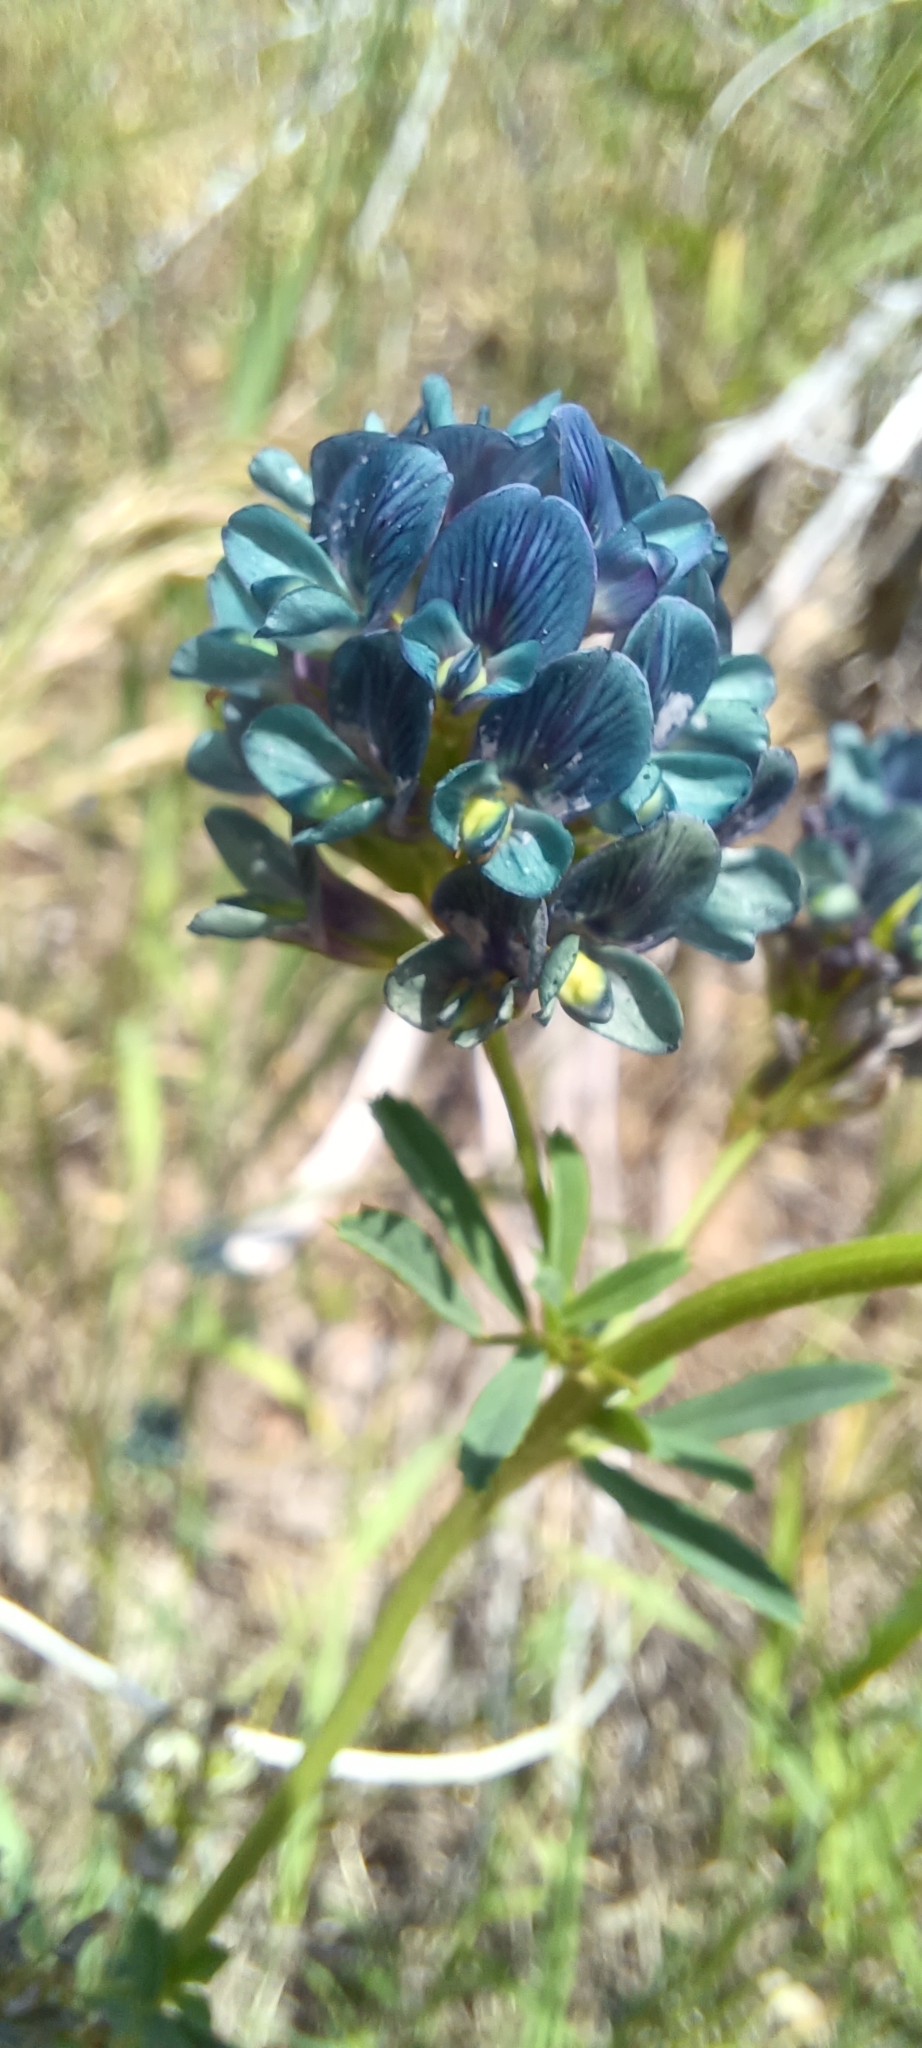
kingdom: Plantae
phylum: Tracheophyta
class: Magnoliopsida
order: Fabales
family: Fabaceae
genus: Medicago
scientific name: Medicago sativa
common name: Alfalfa
